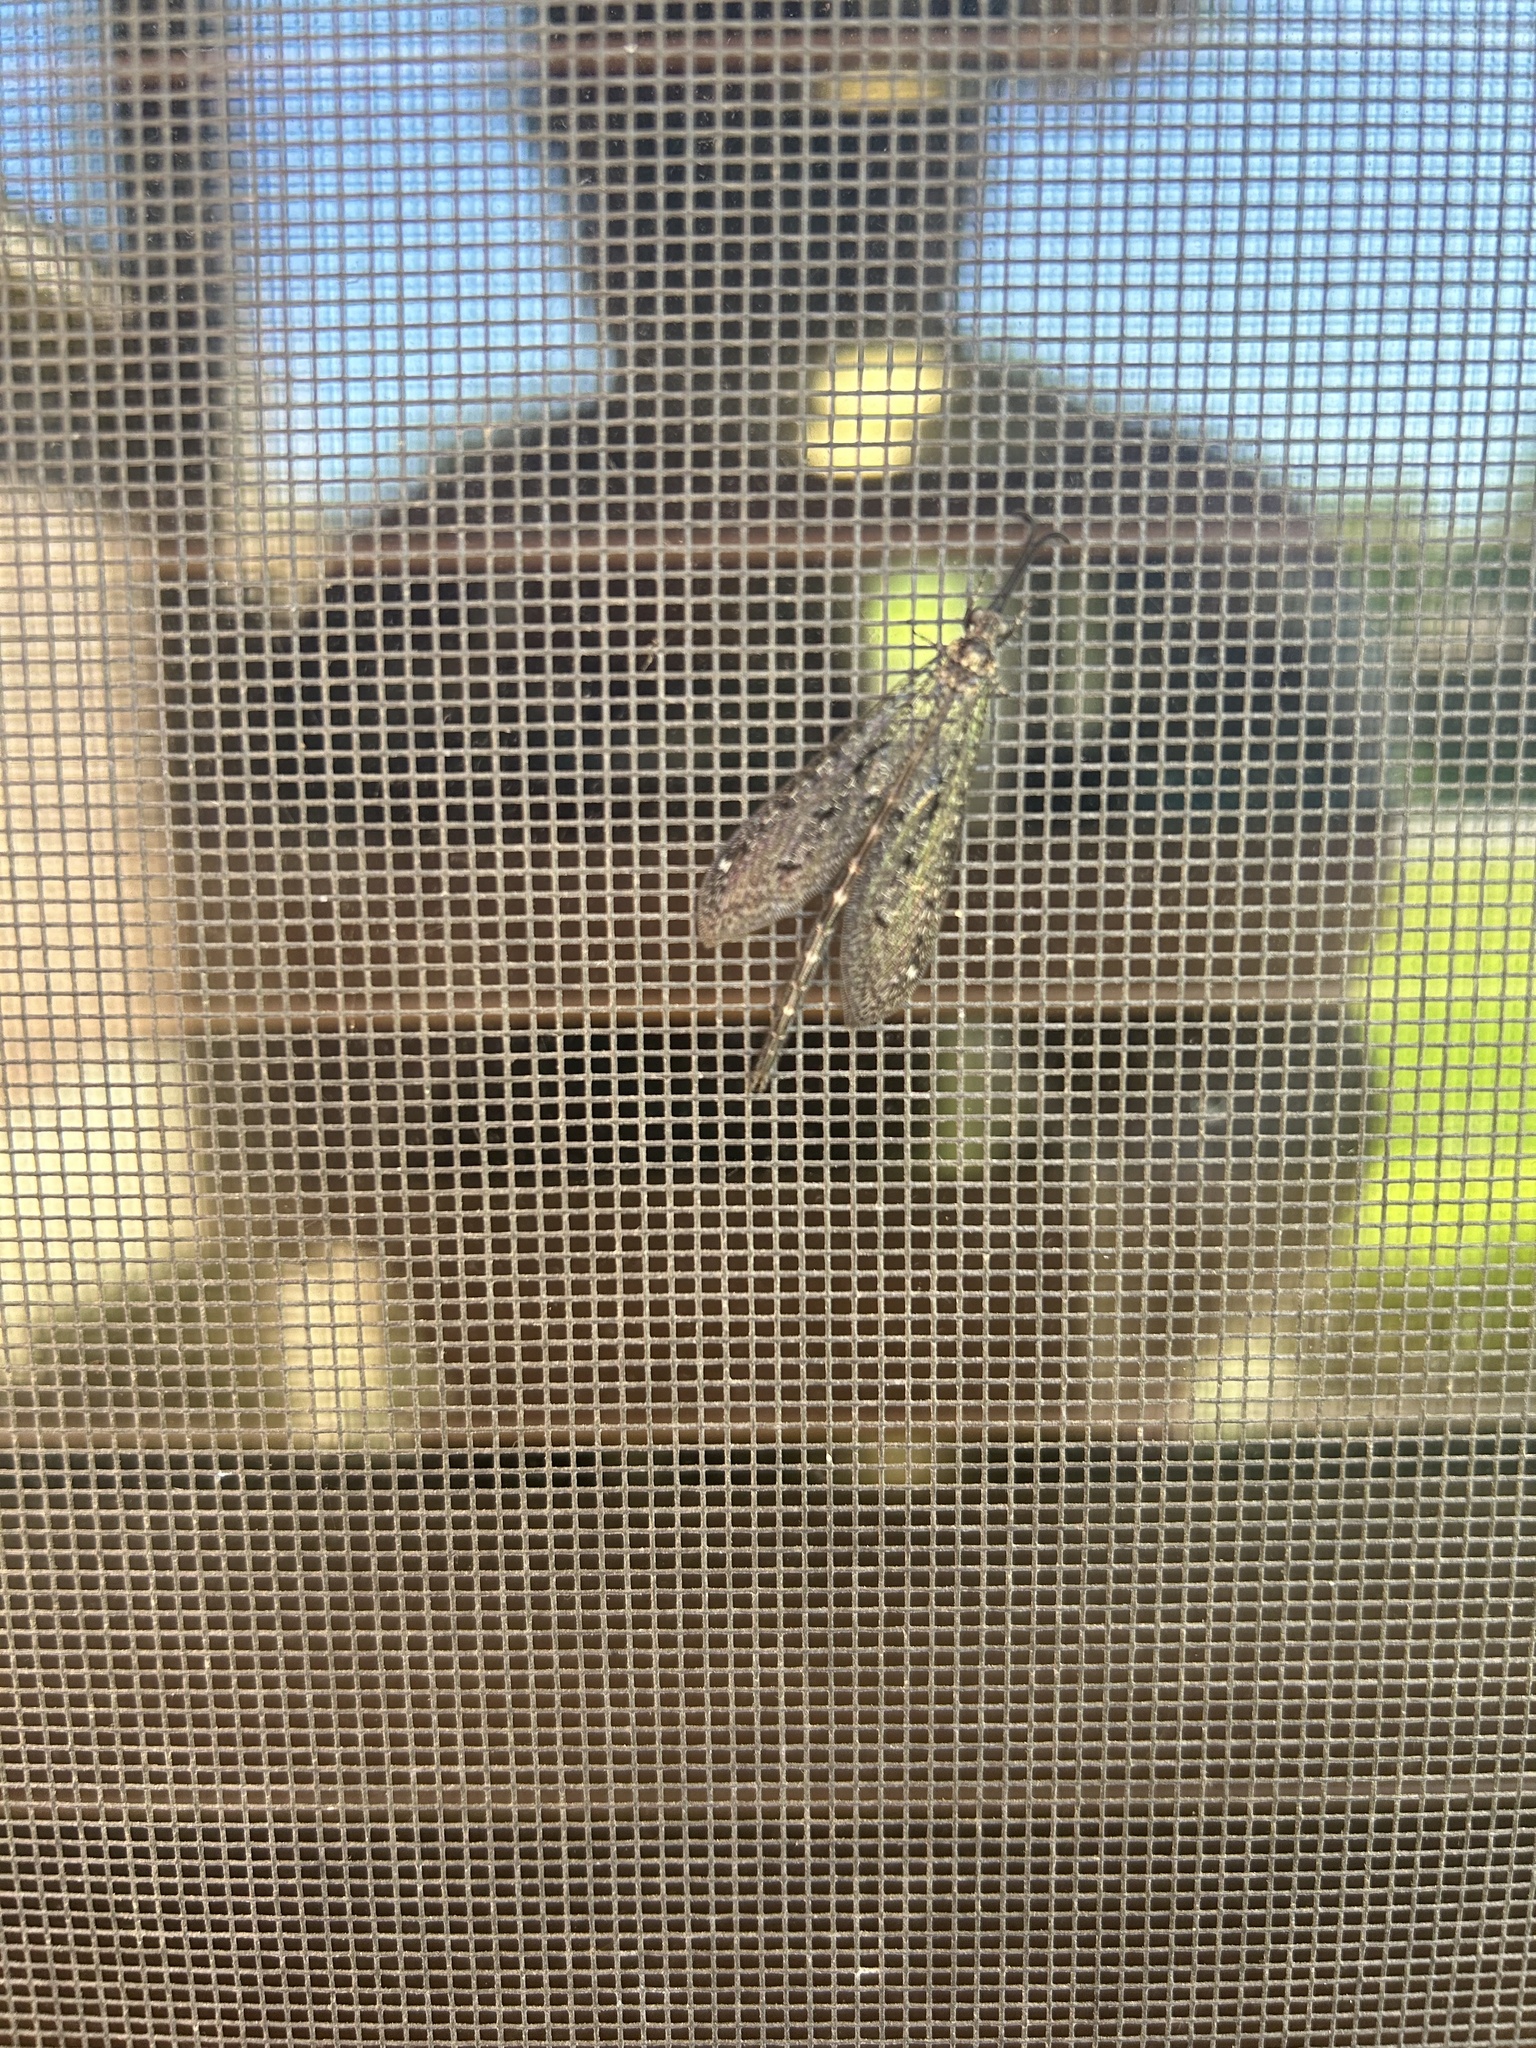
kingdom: Animalia
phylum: Arthropoda
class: Insecta
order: Neuroptera
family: Myrmeleontidae
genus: Brachynemurus
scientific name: Brachynemurus nebulosus
